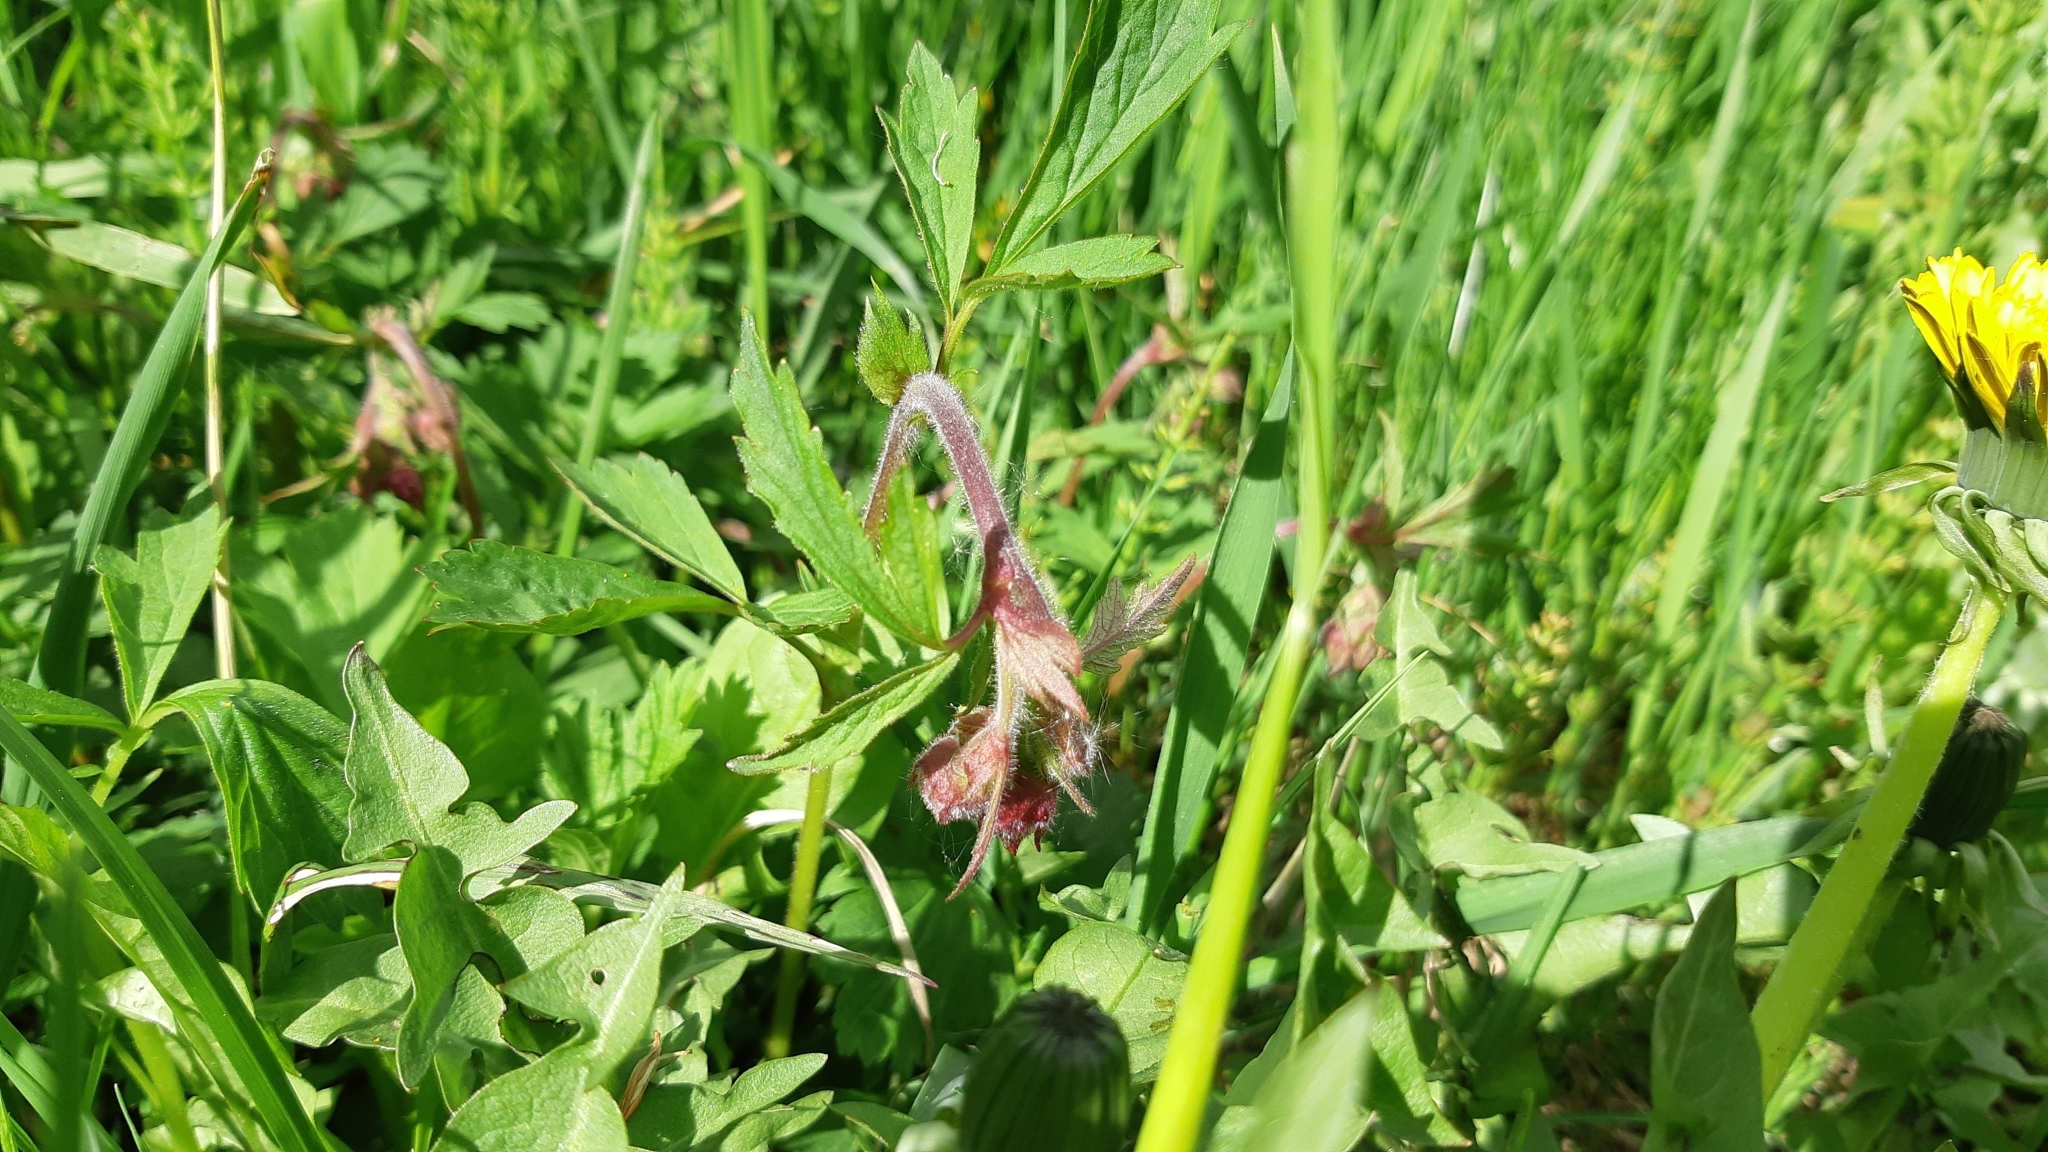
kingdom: Plantae
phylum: Tracheophyta
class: Magnoliopsida
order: Rosales
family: Rosaceae
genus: Geum
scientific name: Geum rivale
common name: Water avens
